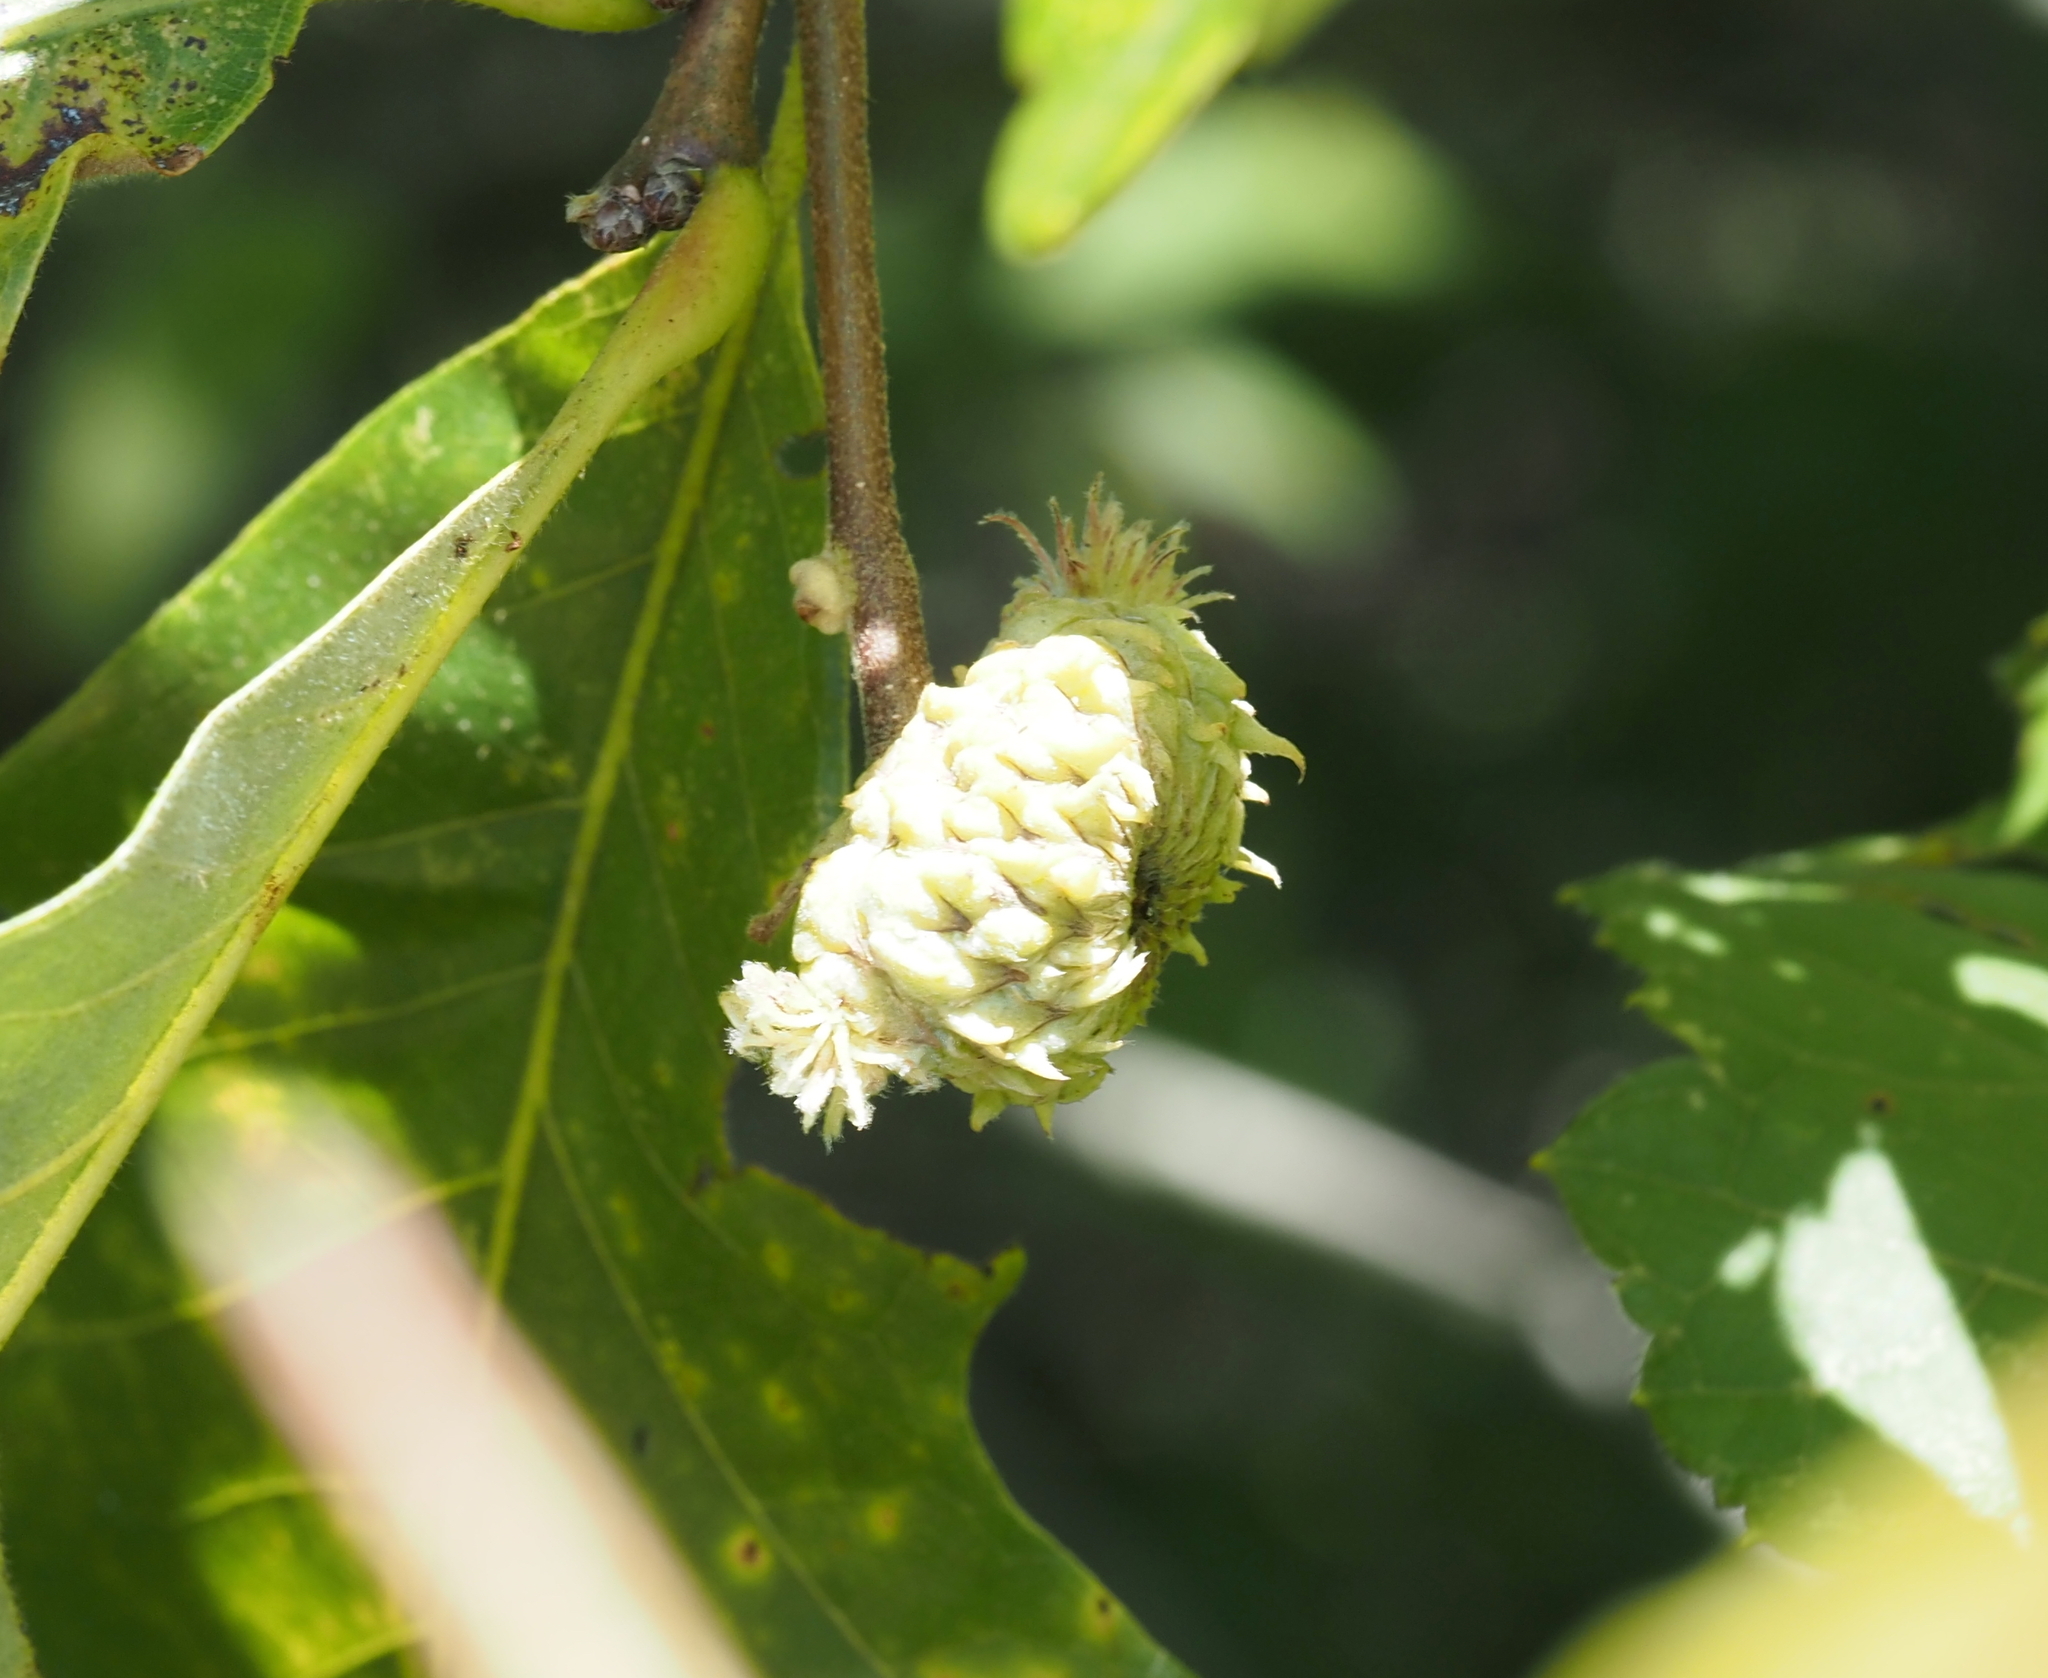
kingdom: Animalia
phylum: Arthropoda
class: Insecta
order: Hymenoptera
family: Cynipidae
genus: Andricus
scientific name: Andricus
